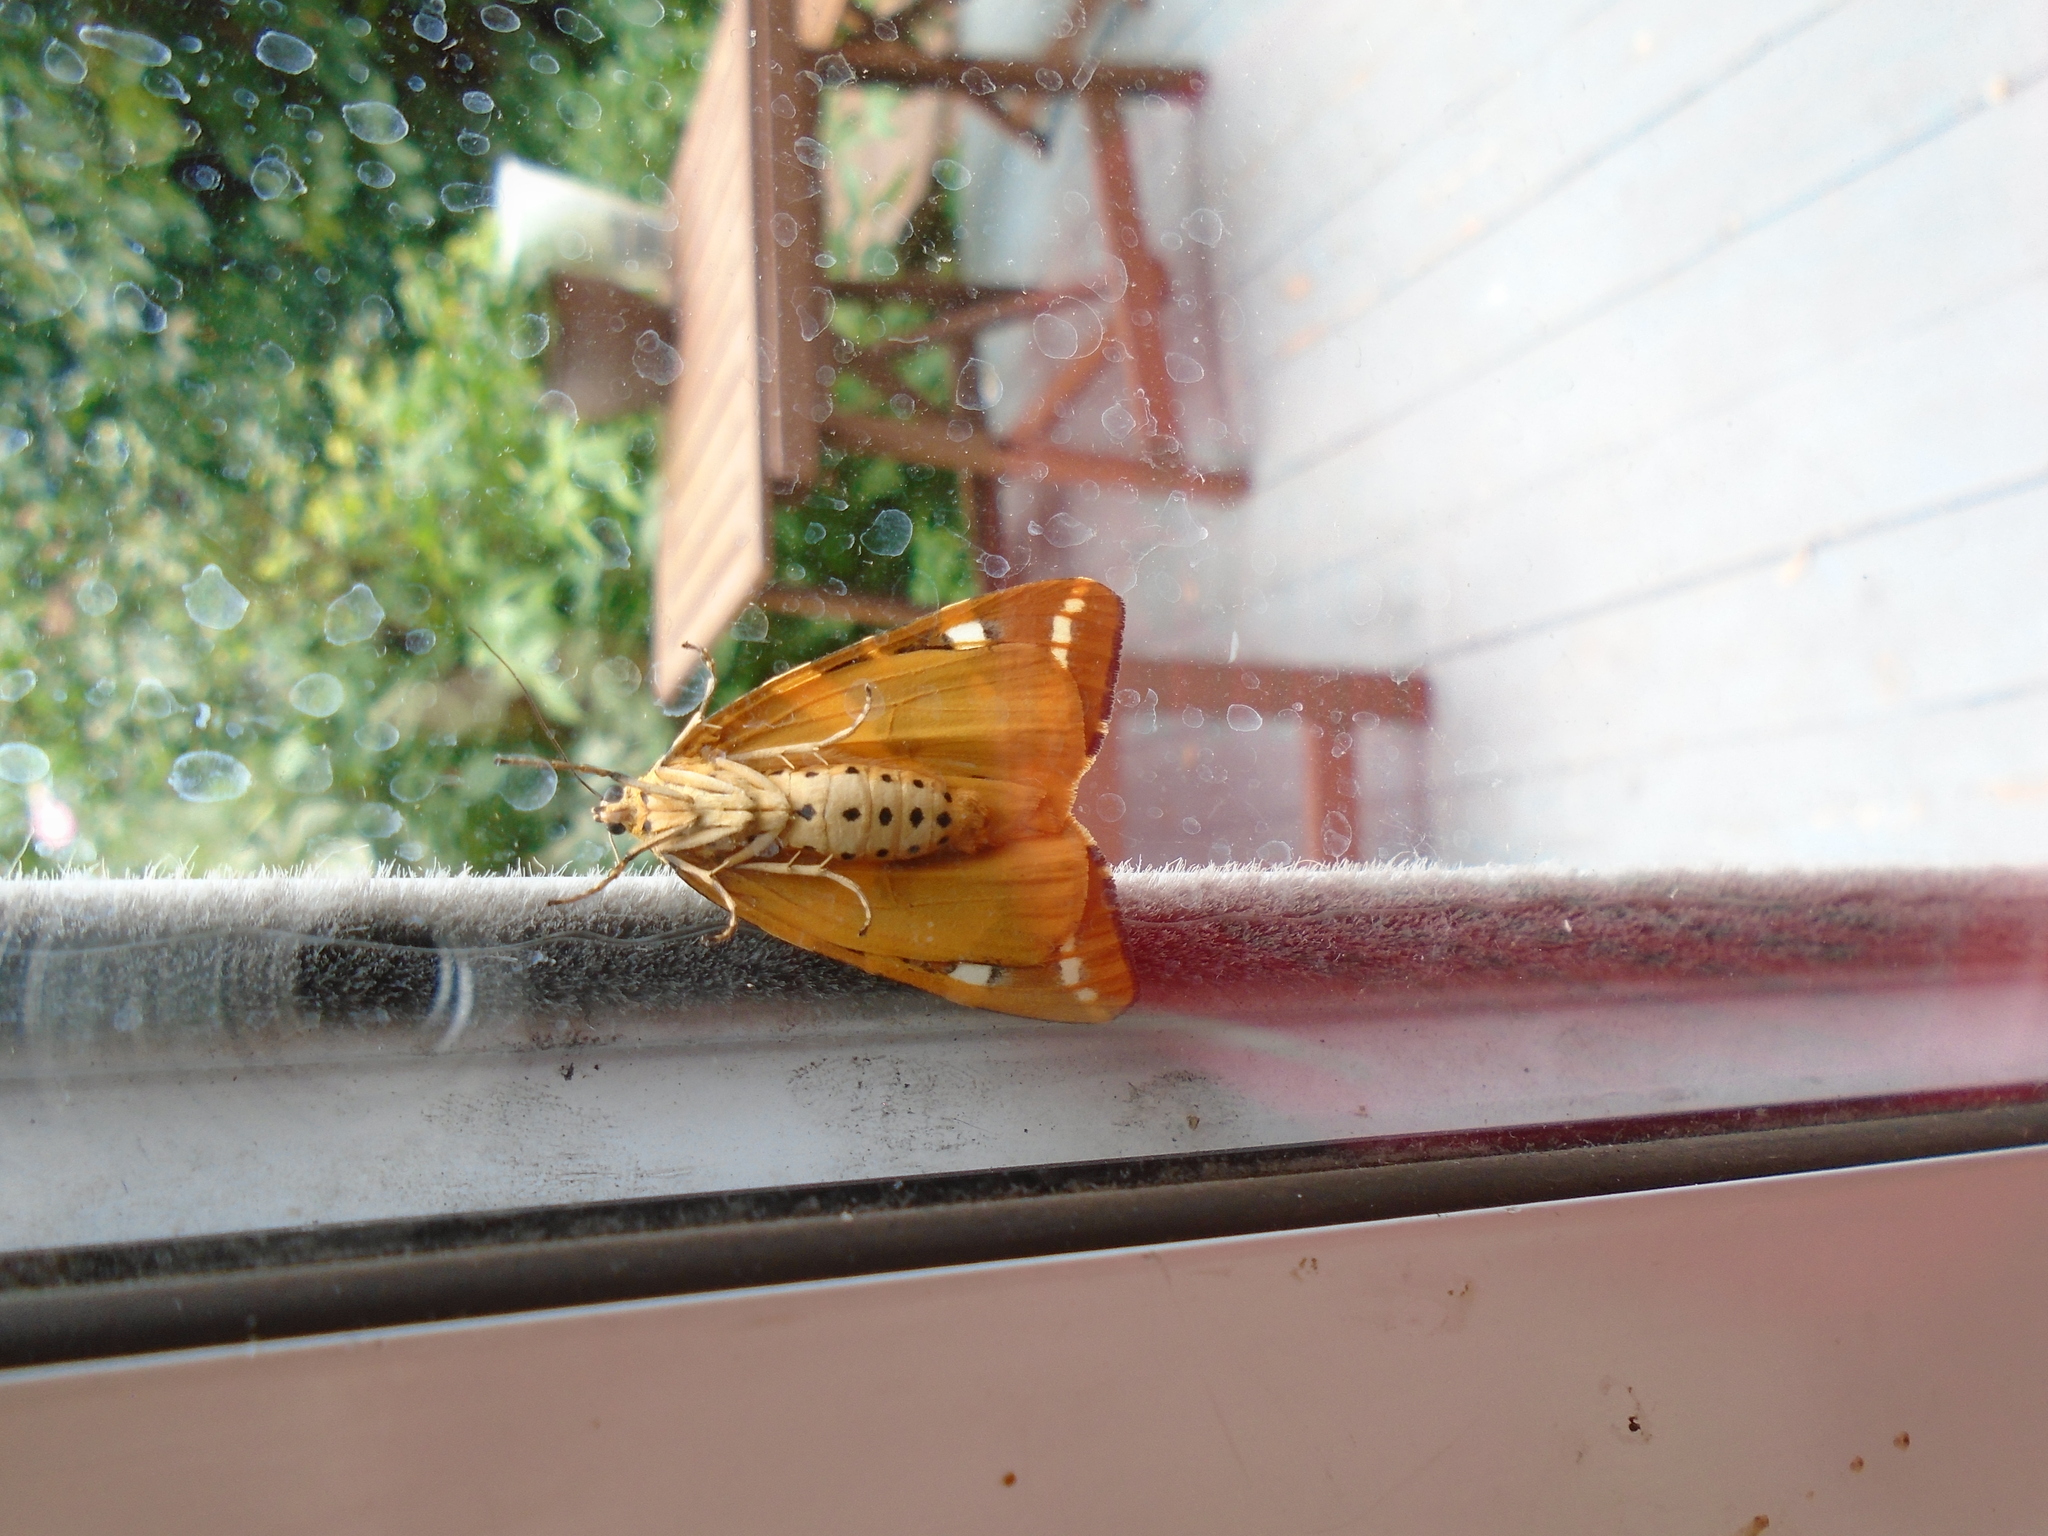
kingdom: Animalia
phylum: Arthropoda
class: Insecta
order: Lepidoptera
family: Erebidae
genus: Euplagia
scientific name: Euplagia quadripunctaria
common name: Jersey tiger
